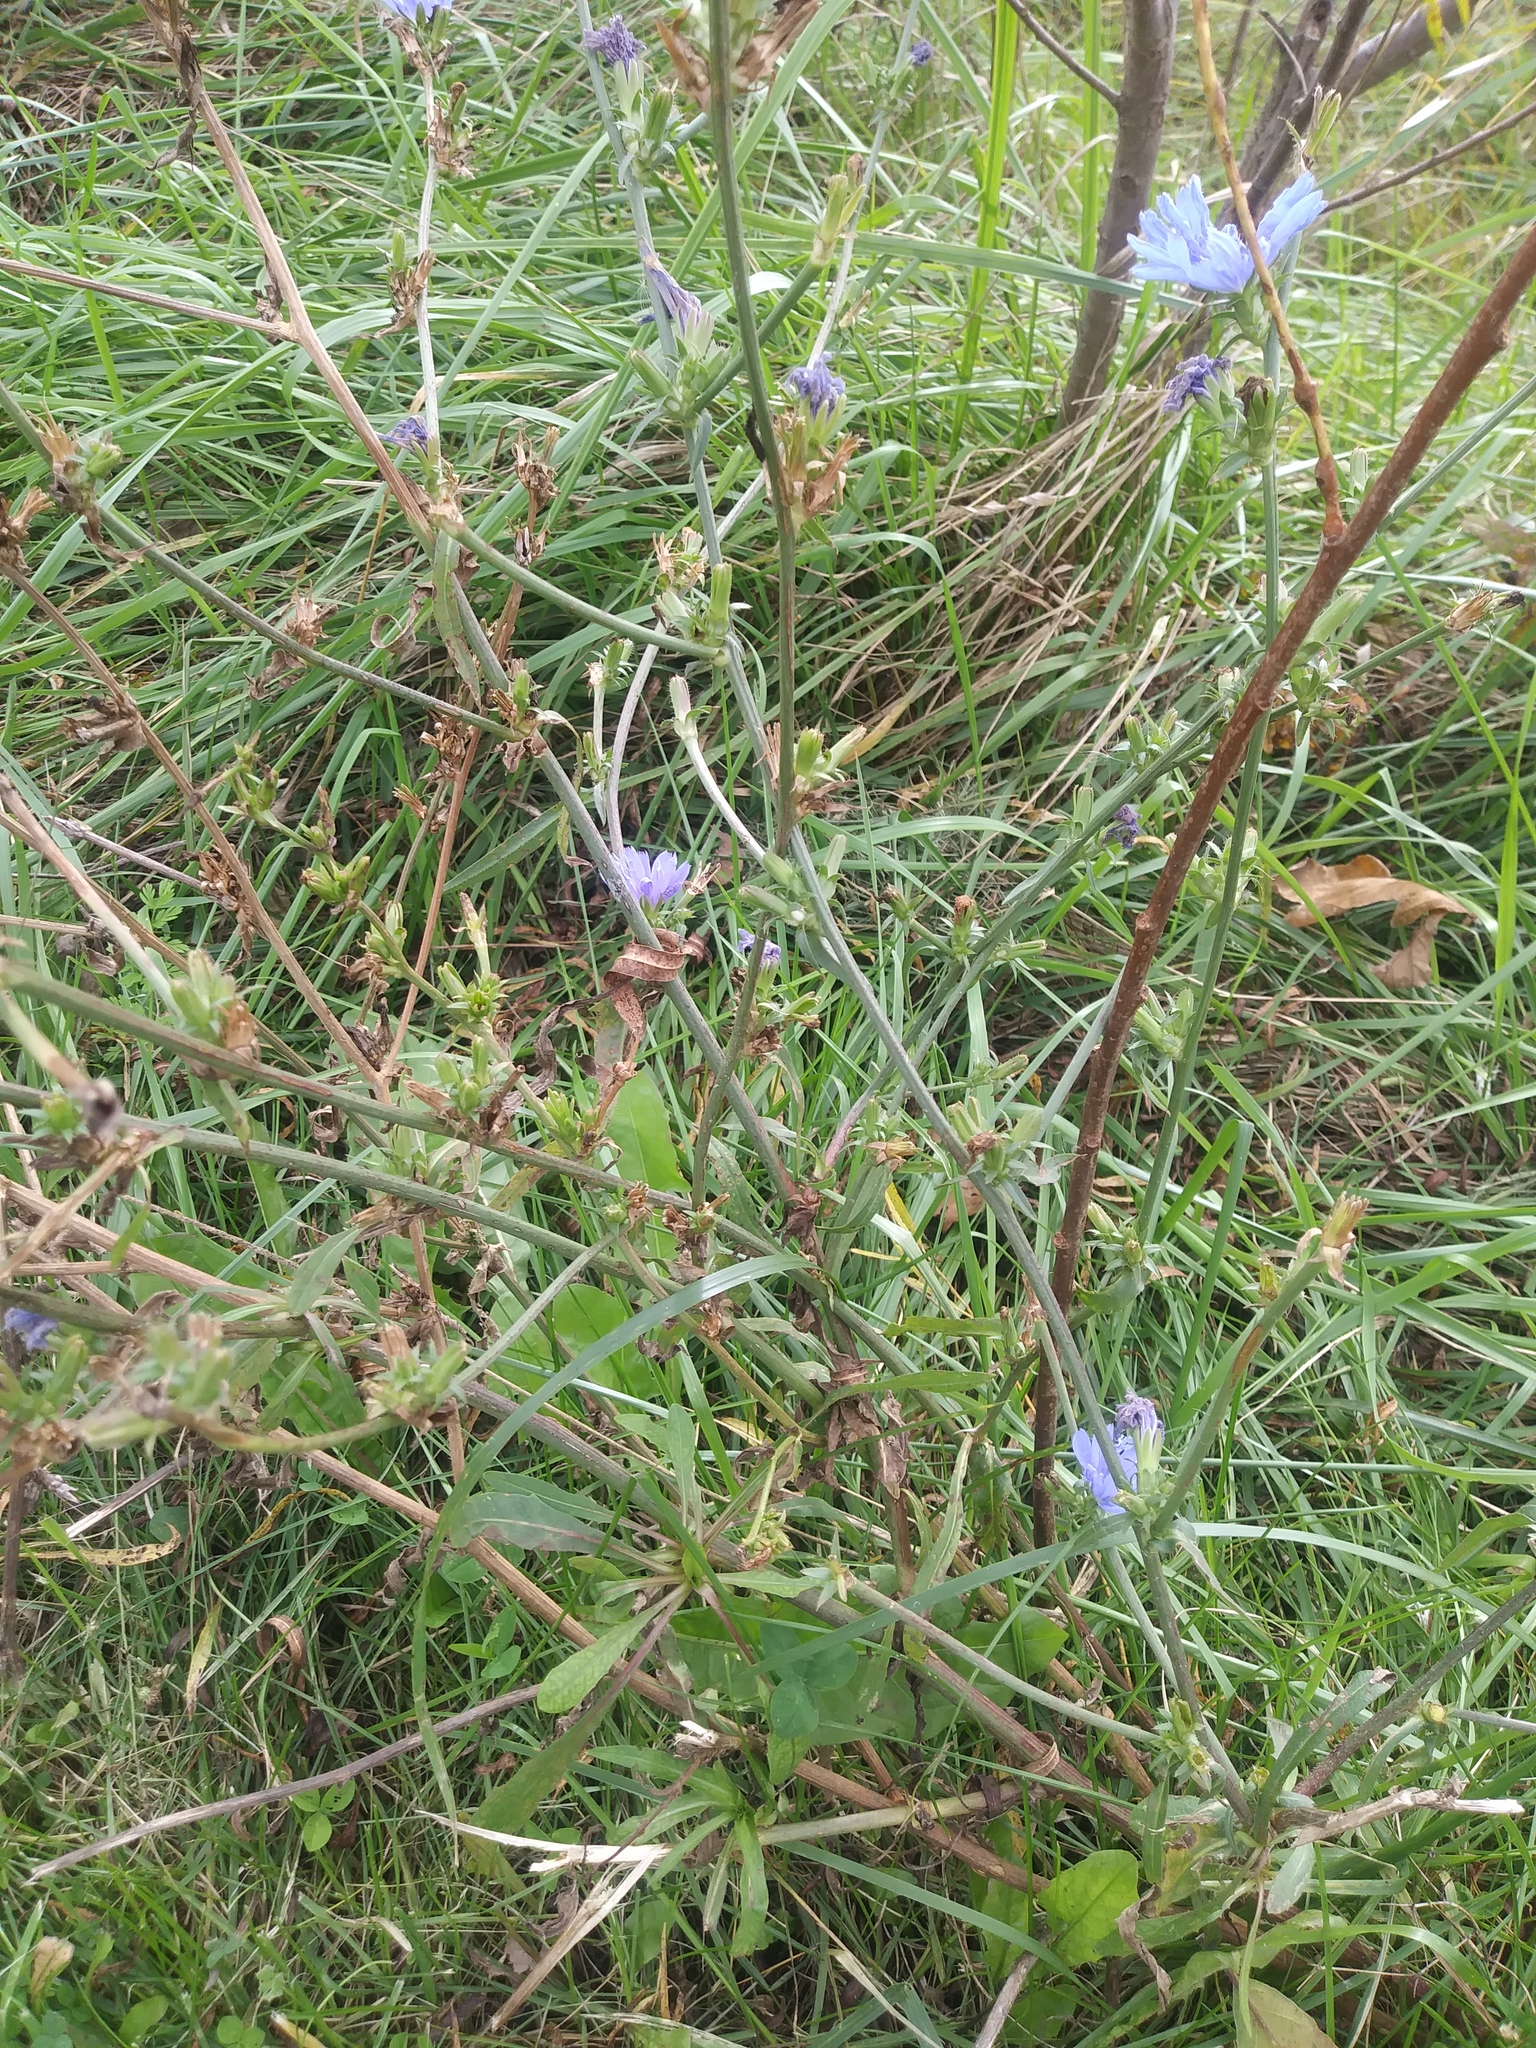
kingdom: Plantae
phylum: Tracheophyta
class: Magnoliopsida
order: Asterales
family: Asteraceae
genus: Cichorium
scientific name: Cichorium intybus
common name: Chicory
